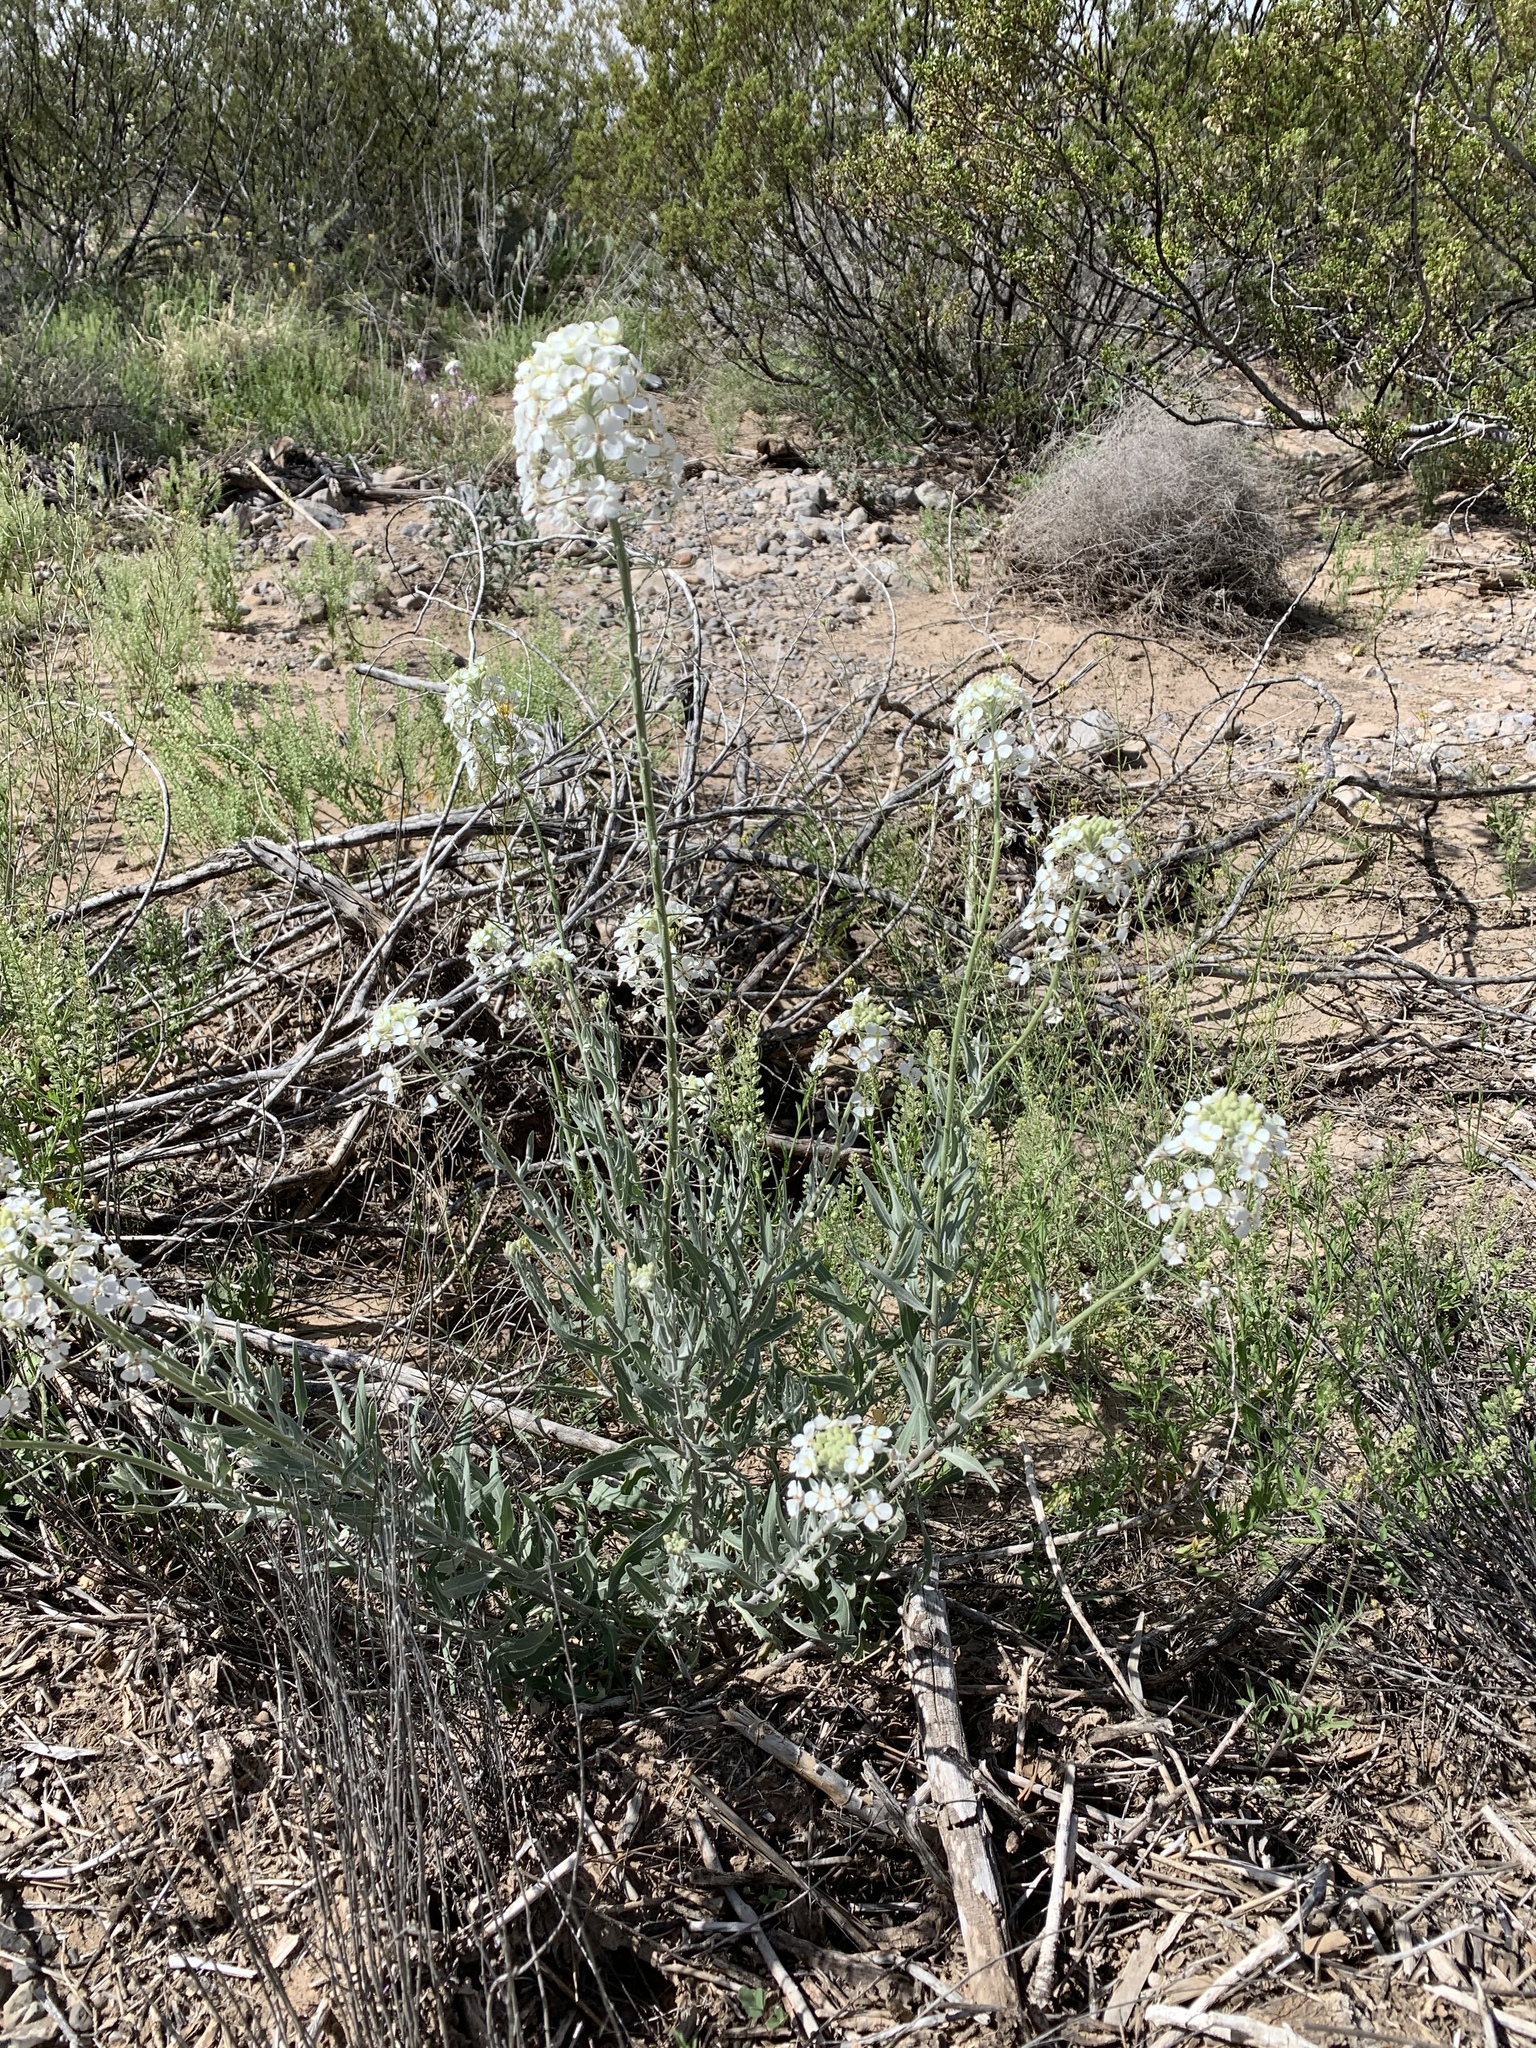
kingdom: Plantae
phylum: Tracheophyta
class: Magnoliopsida
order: Brassicales
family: Brassicaceae
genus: Dimorphocarpa
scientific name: Dimorphocarpa wislizenii
